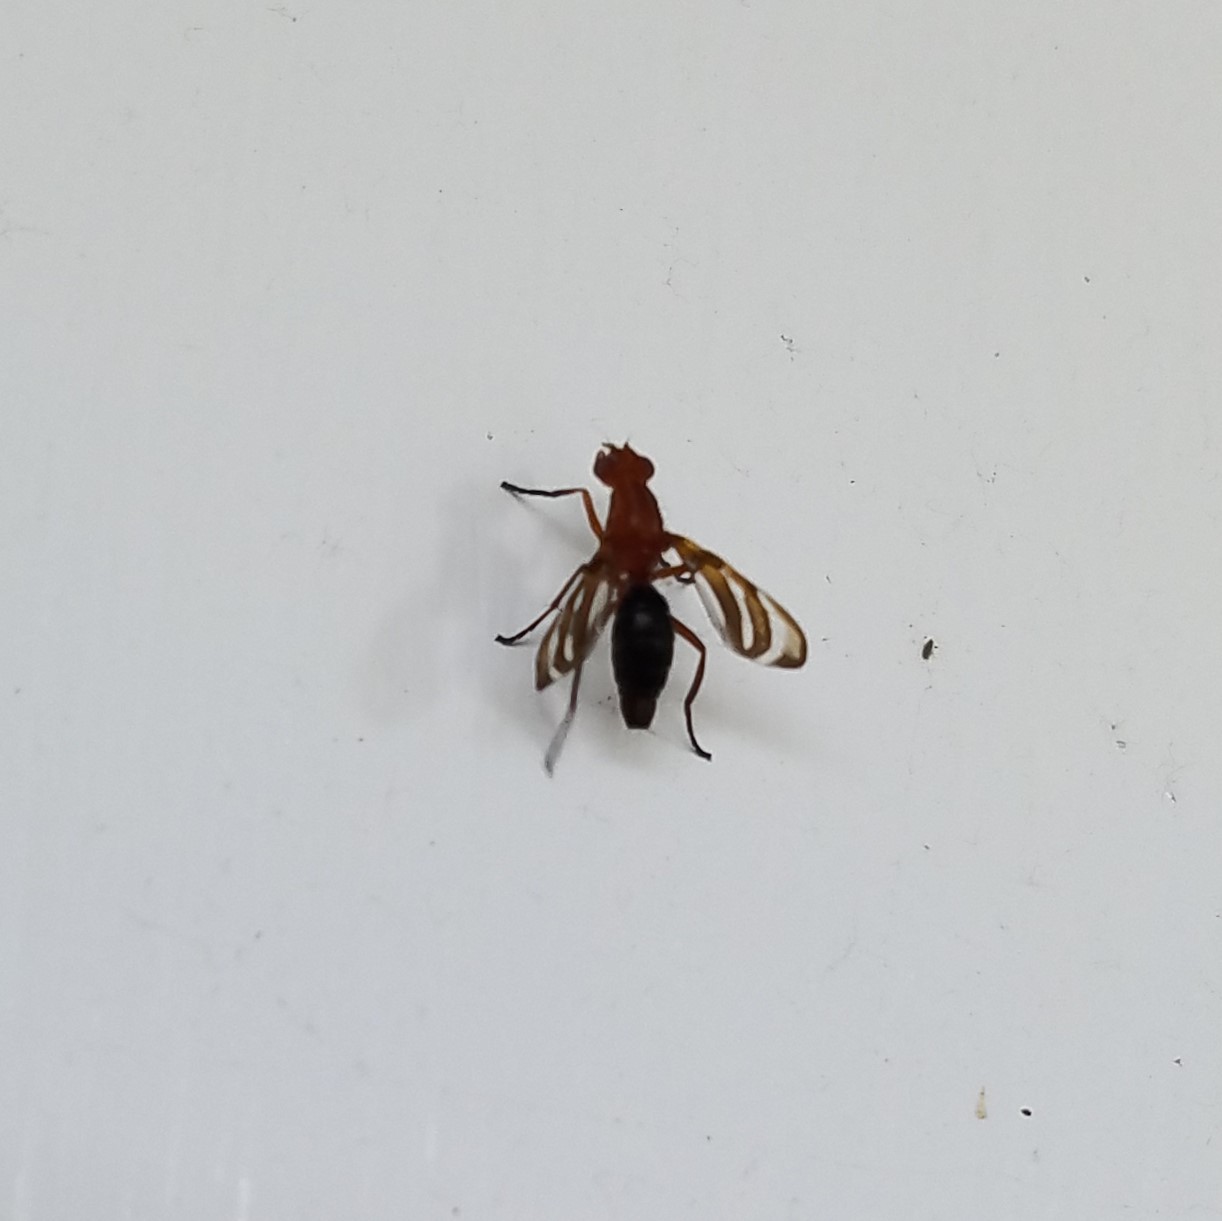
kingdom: Animalia
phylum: Arthropoda
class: Insecta
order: Diptera
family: Ulidiidae
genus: Tritoxa
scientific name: Tritoxa incurva
